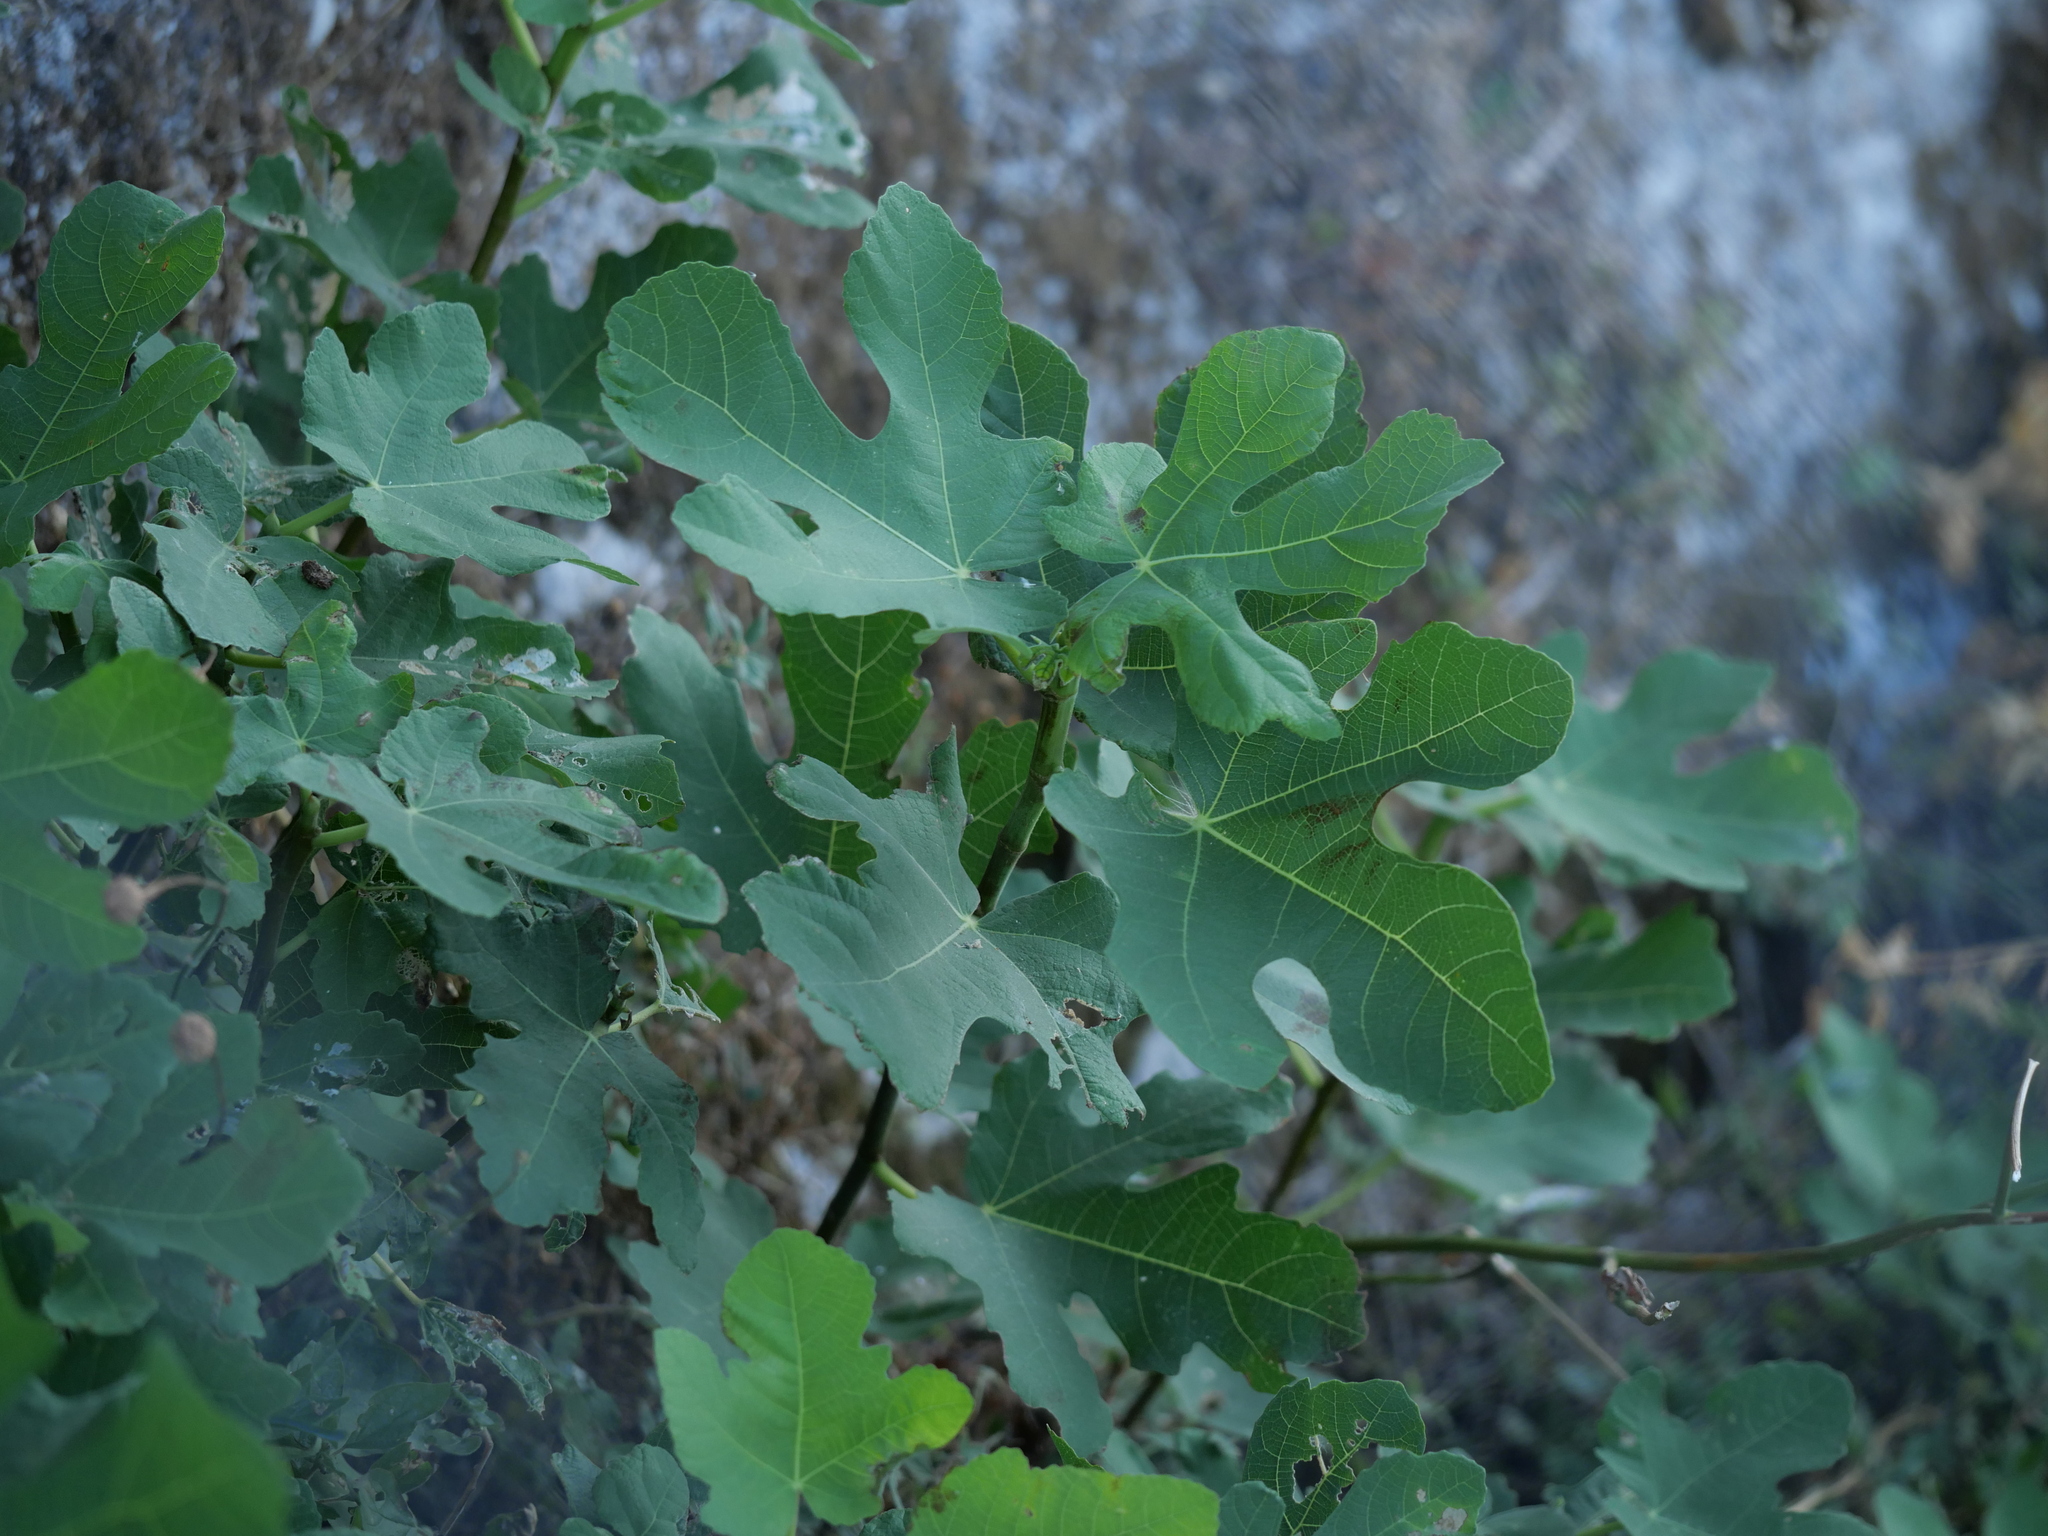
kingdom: Plantae
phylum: Tracheophyta
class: Magnoliopsida
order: Rosales
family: Moraceae
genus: Ficus
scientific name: Ficus carica
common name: Fig
